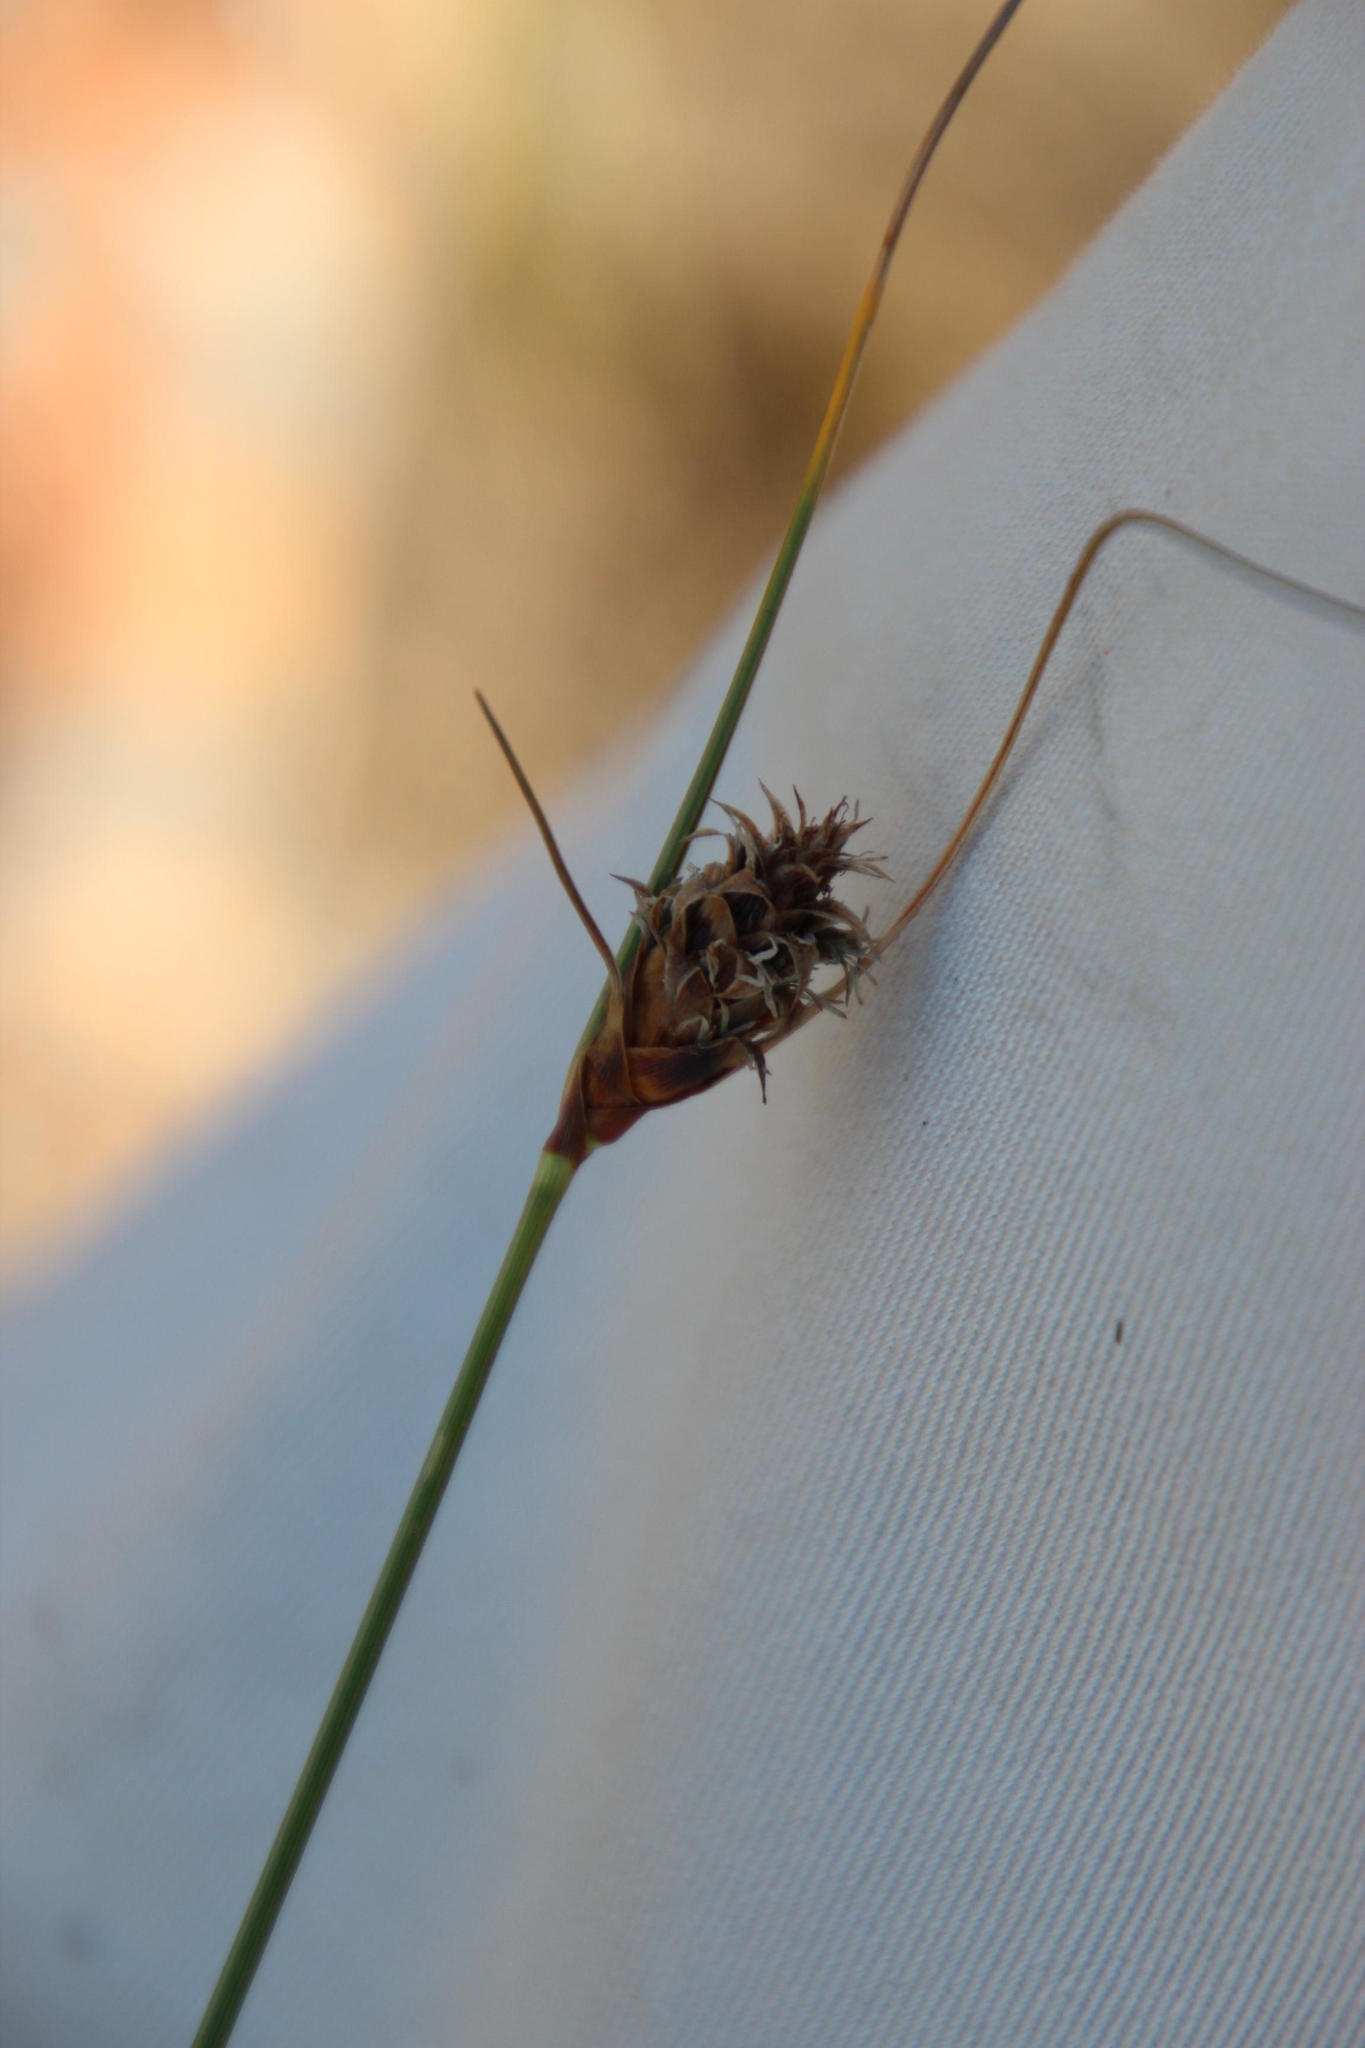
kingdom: Plantae
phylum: Tracheophyta
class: Liliopsida
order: Poales
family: Cyperaceae
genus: Ficinia
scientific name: Ficinia nigrescens
